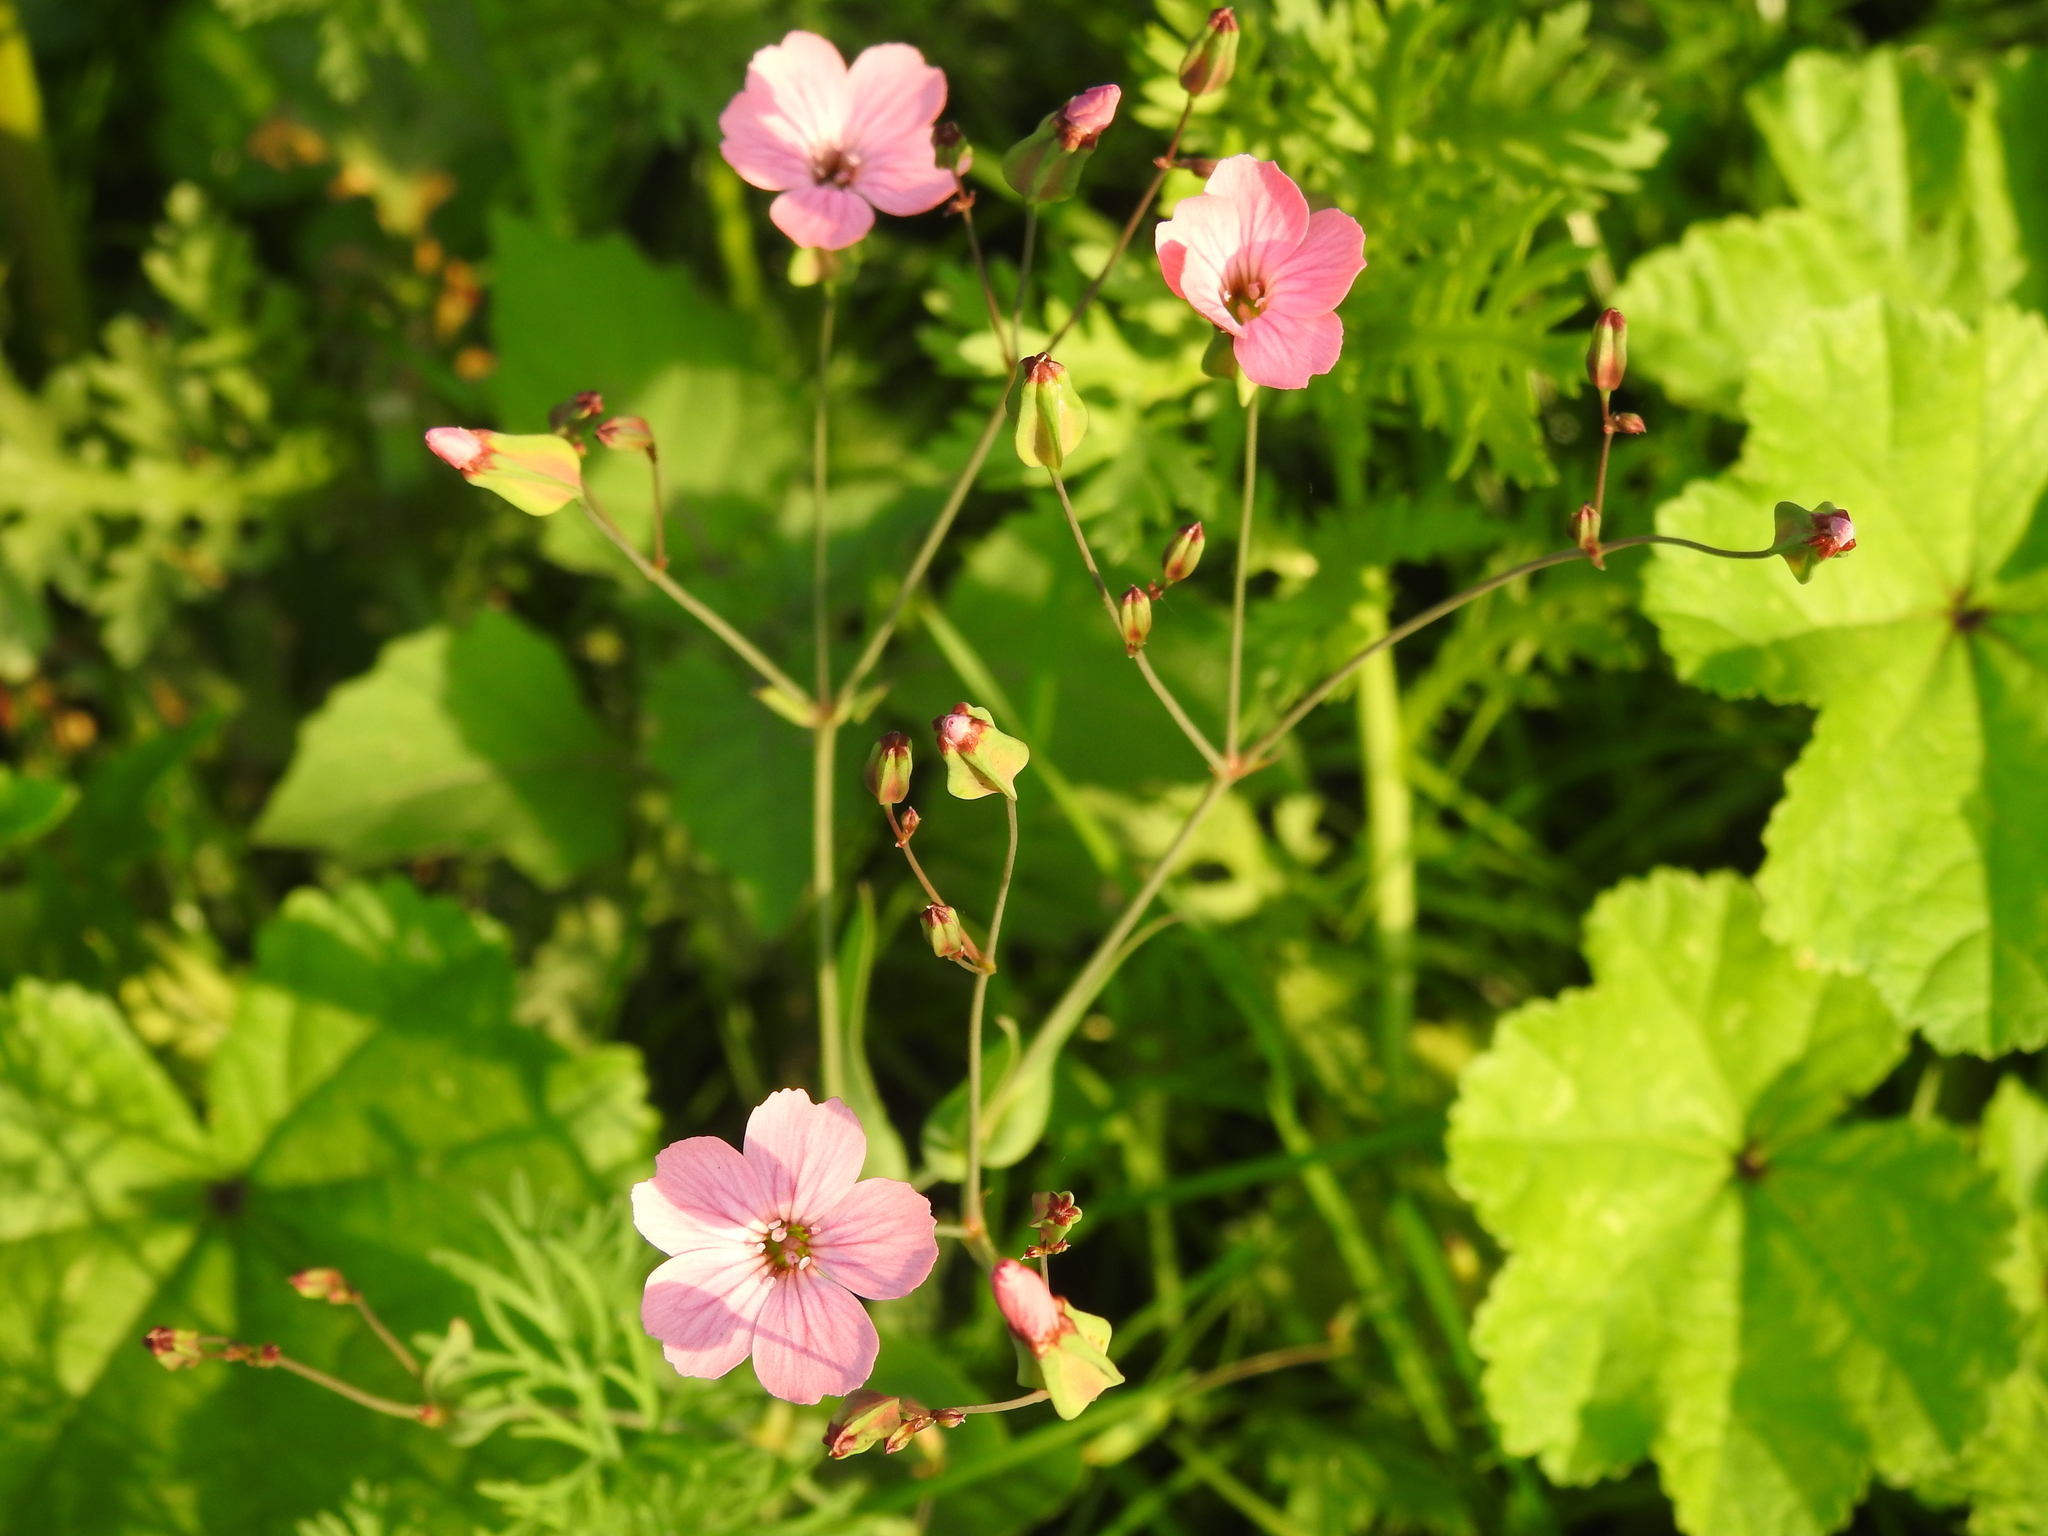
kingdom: Plantae
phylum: Tracheophyta
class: Magnoliopsida
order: Caryophyllales
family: Caryophyllaceae
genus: Gypsophila
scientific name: Gypsophila vaccaria
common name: Cow soapwort
